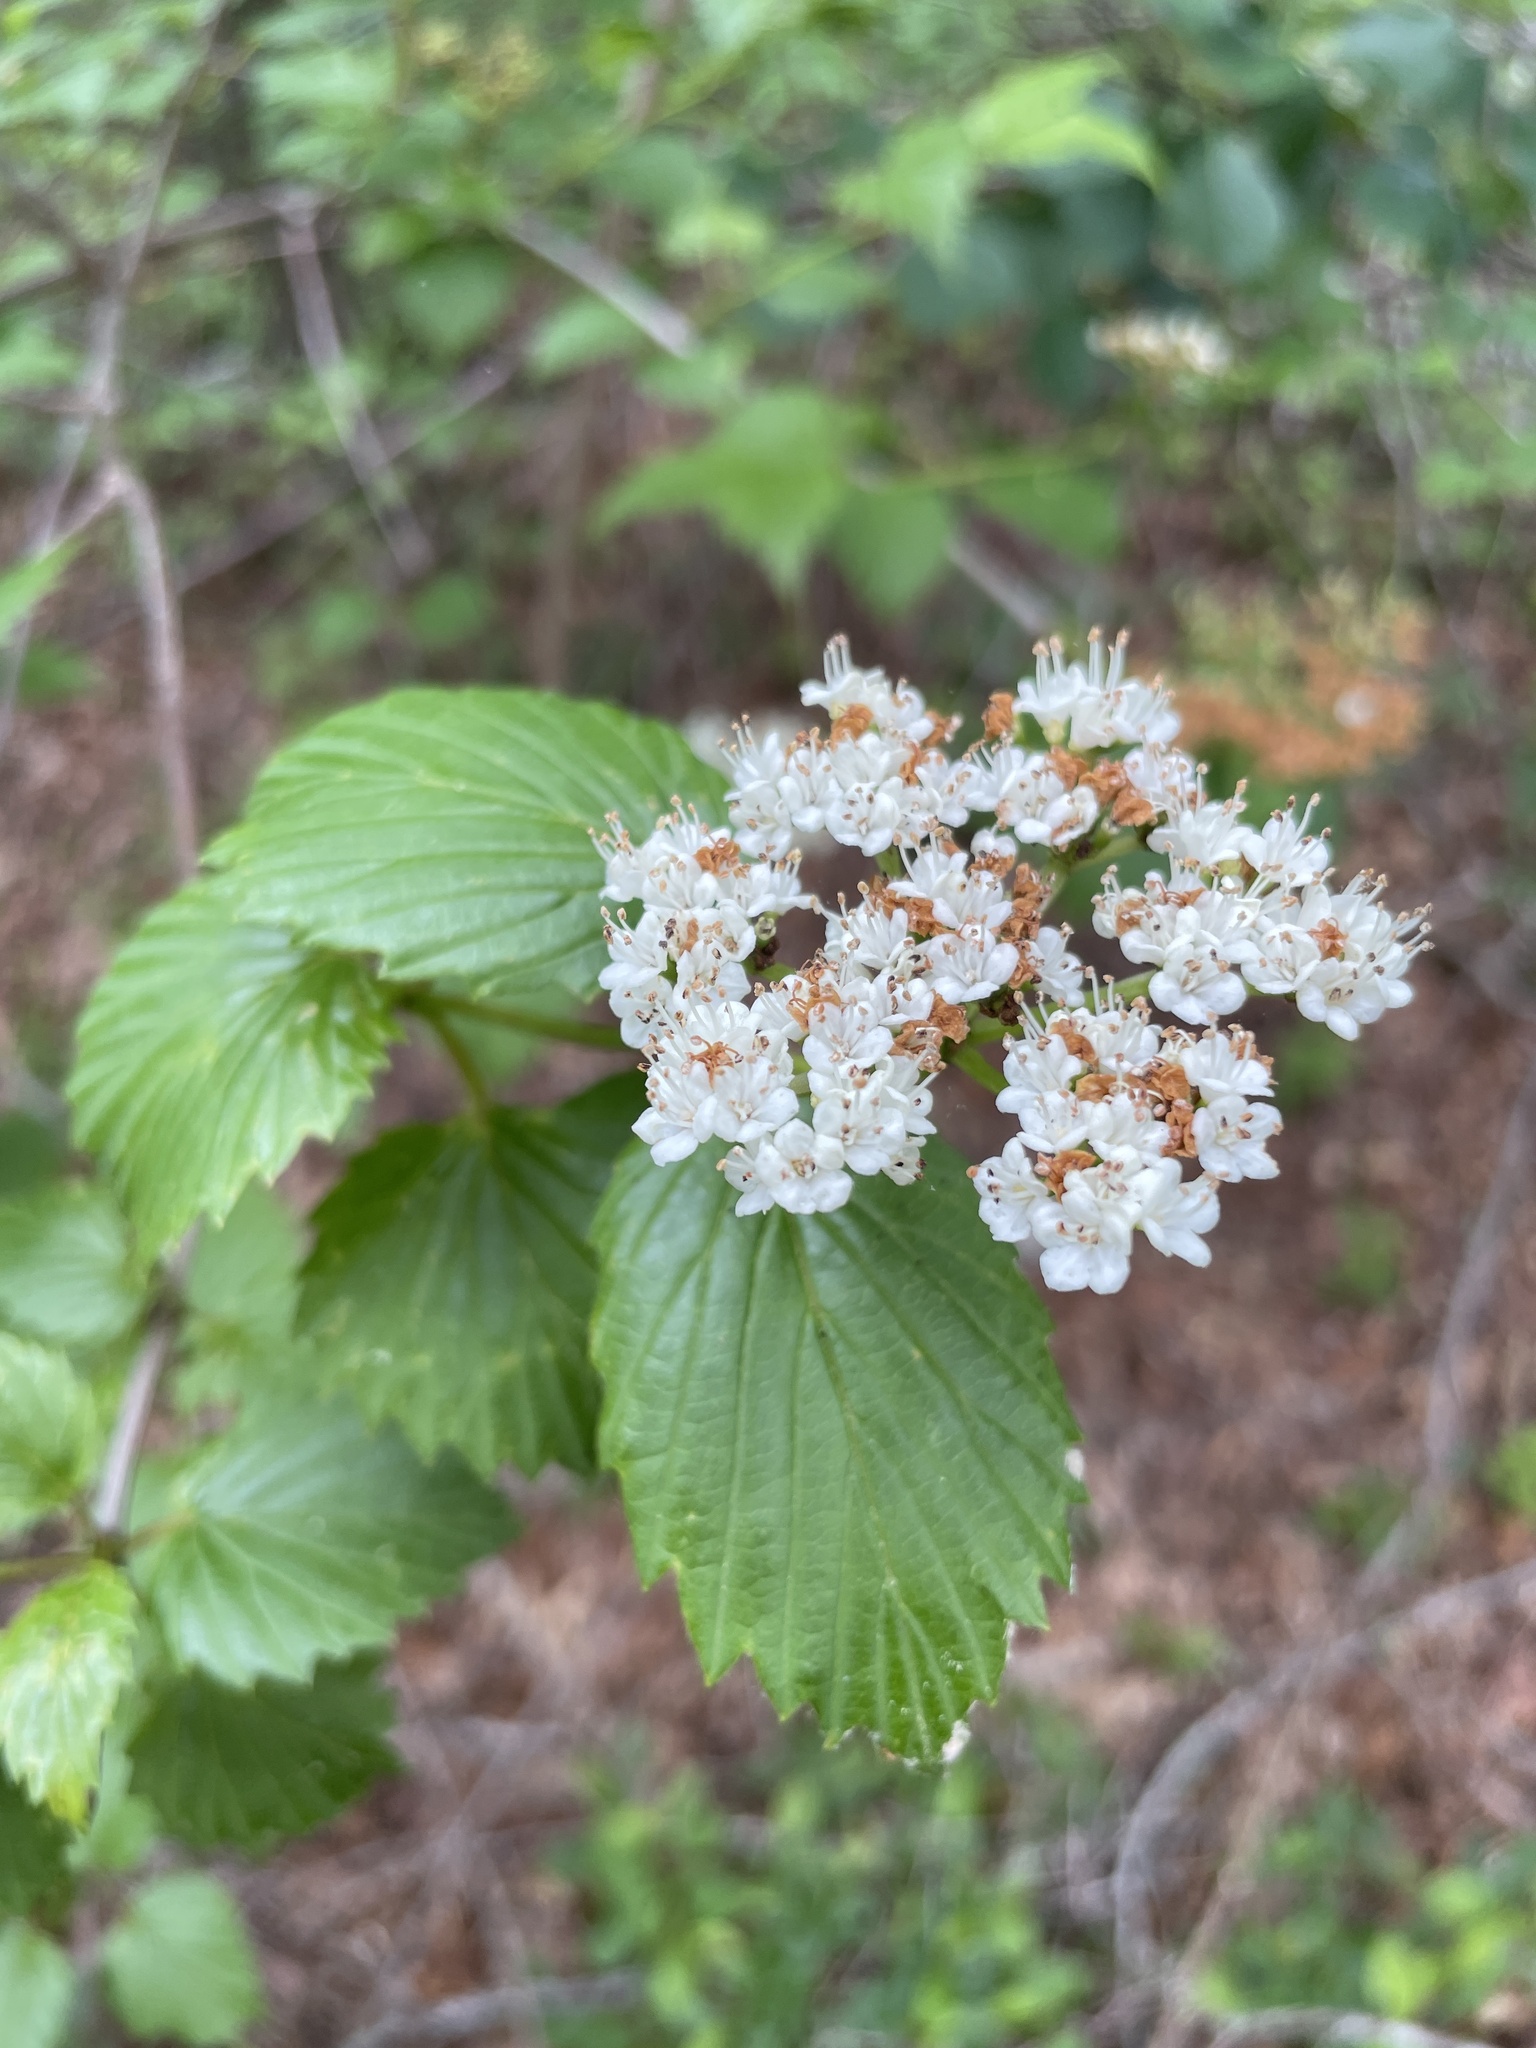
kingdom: Plantae
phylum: Tracheophyta
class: Magnoliopsida
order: Dipsacales
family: Viburnaceae
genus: Viburnum
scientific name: Viburnum recognitum
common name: Northern arrow-wood
